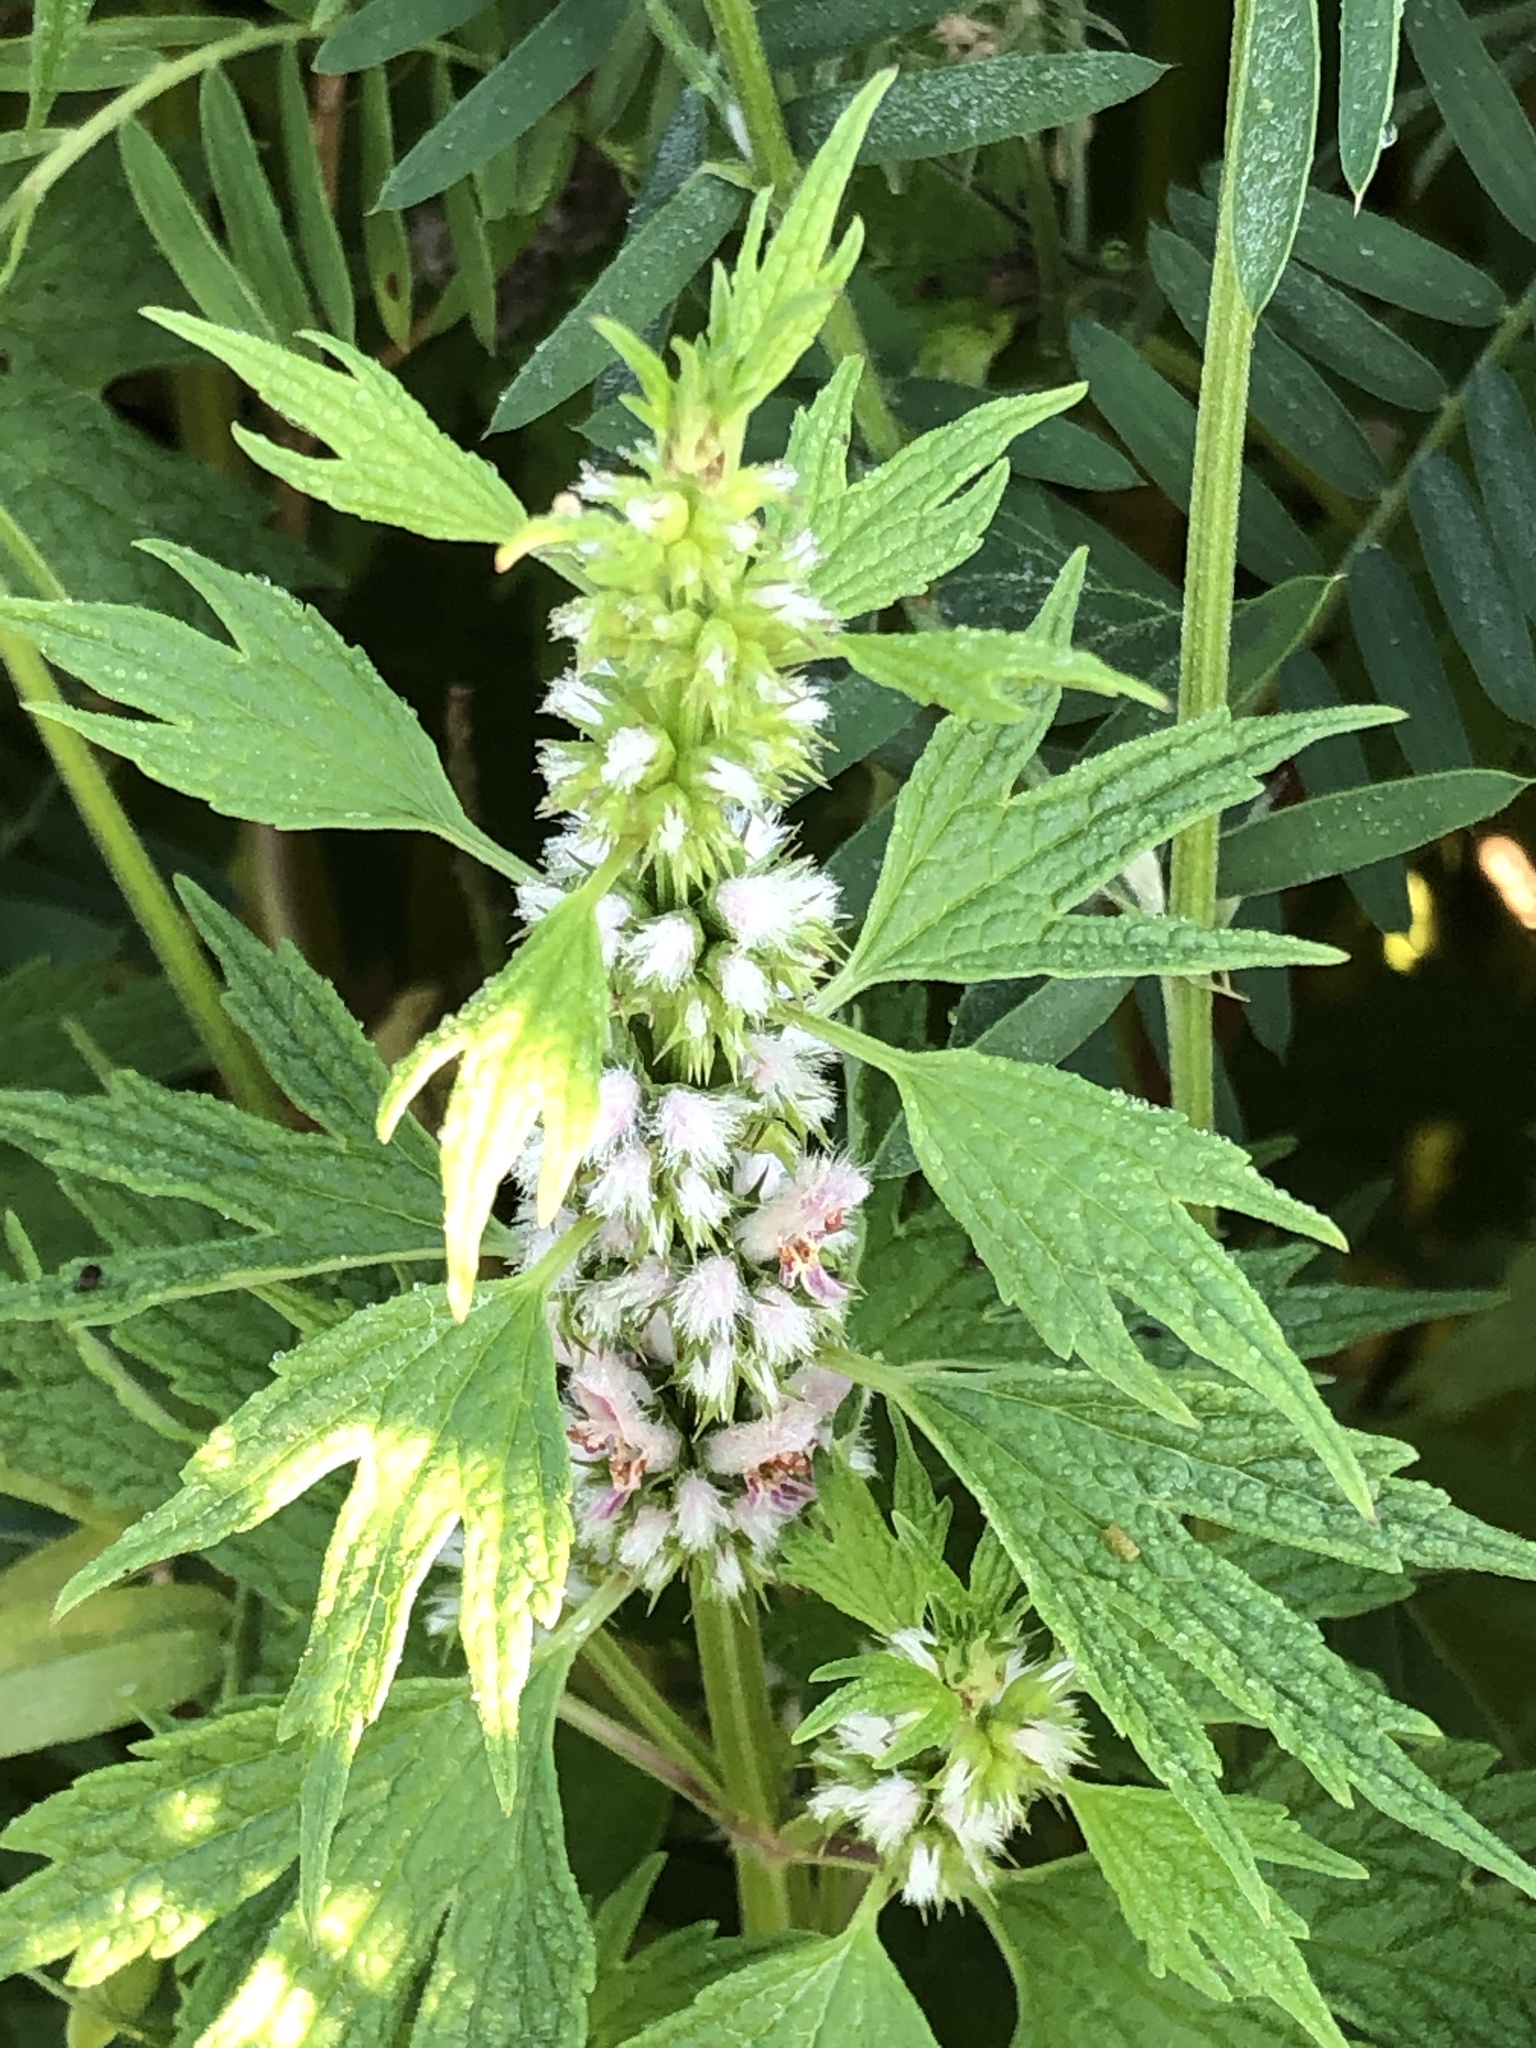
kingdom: Plantae
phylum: Tracheophyta
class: Magnoliopsida
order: Lamiales
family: Lamiaceae
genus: Leonurus
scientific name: Leonurus cardiaca
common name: Motherwort
